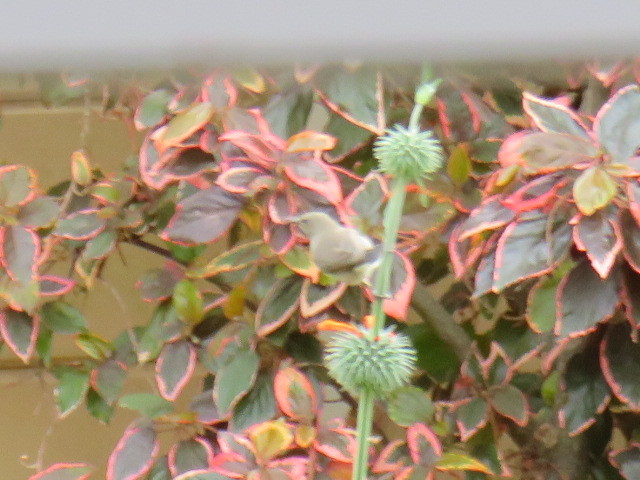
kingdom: Animalia
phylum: Chordata
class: Aves
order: Passeriformes
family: Nectariniidae
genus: Cinnyris
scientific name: Cinnyris chalybeus
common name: Southern double-collared sunbird
